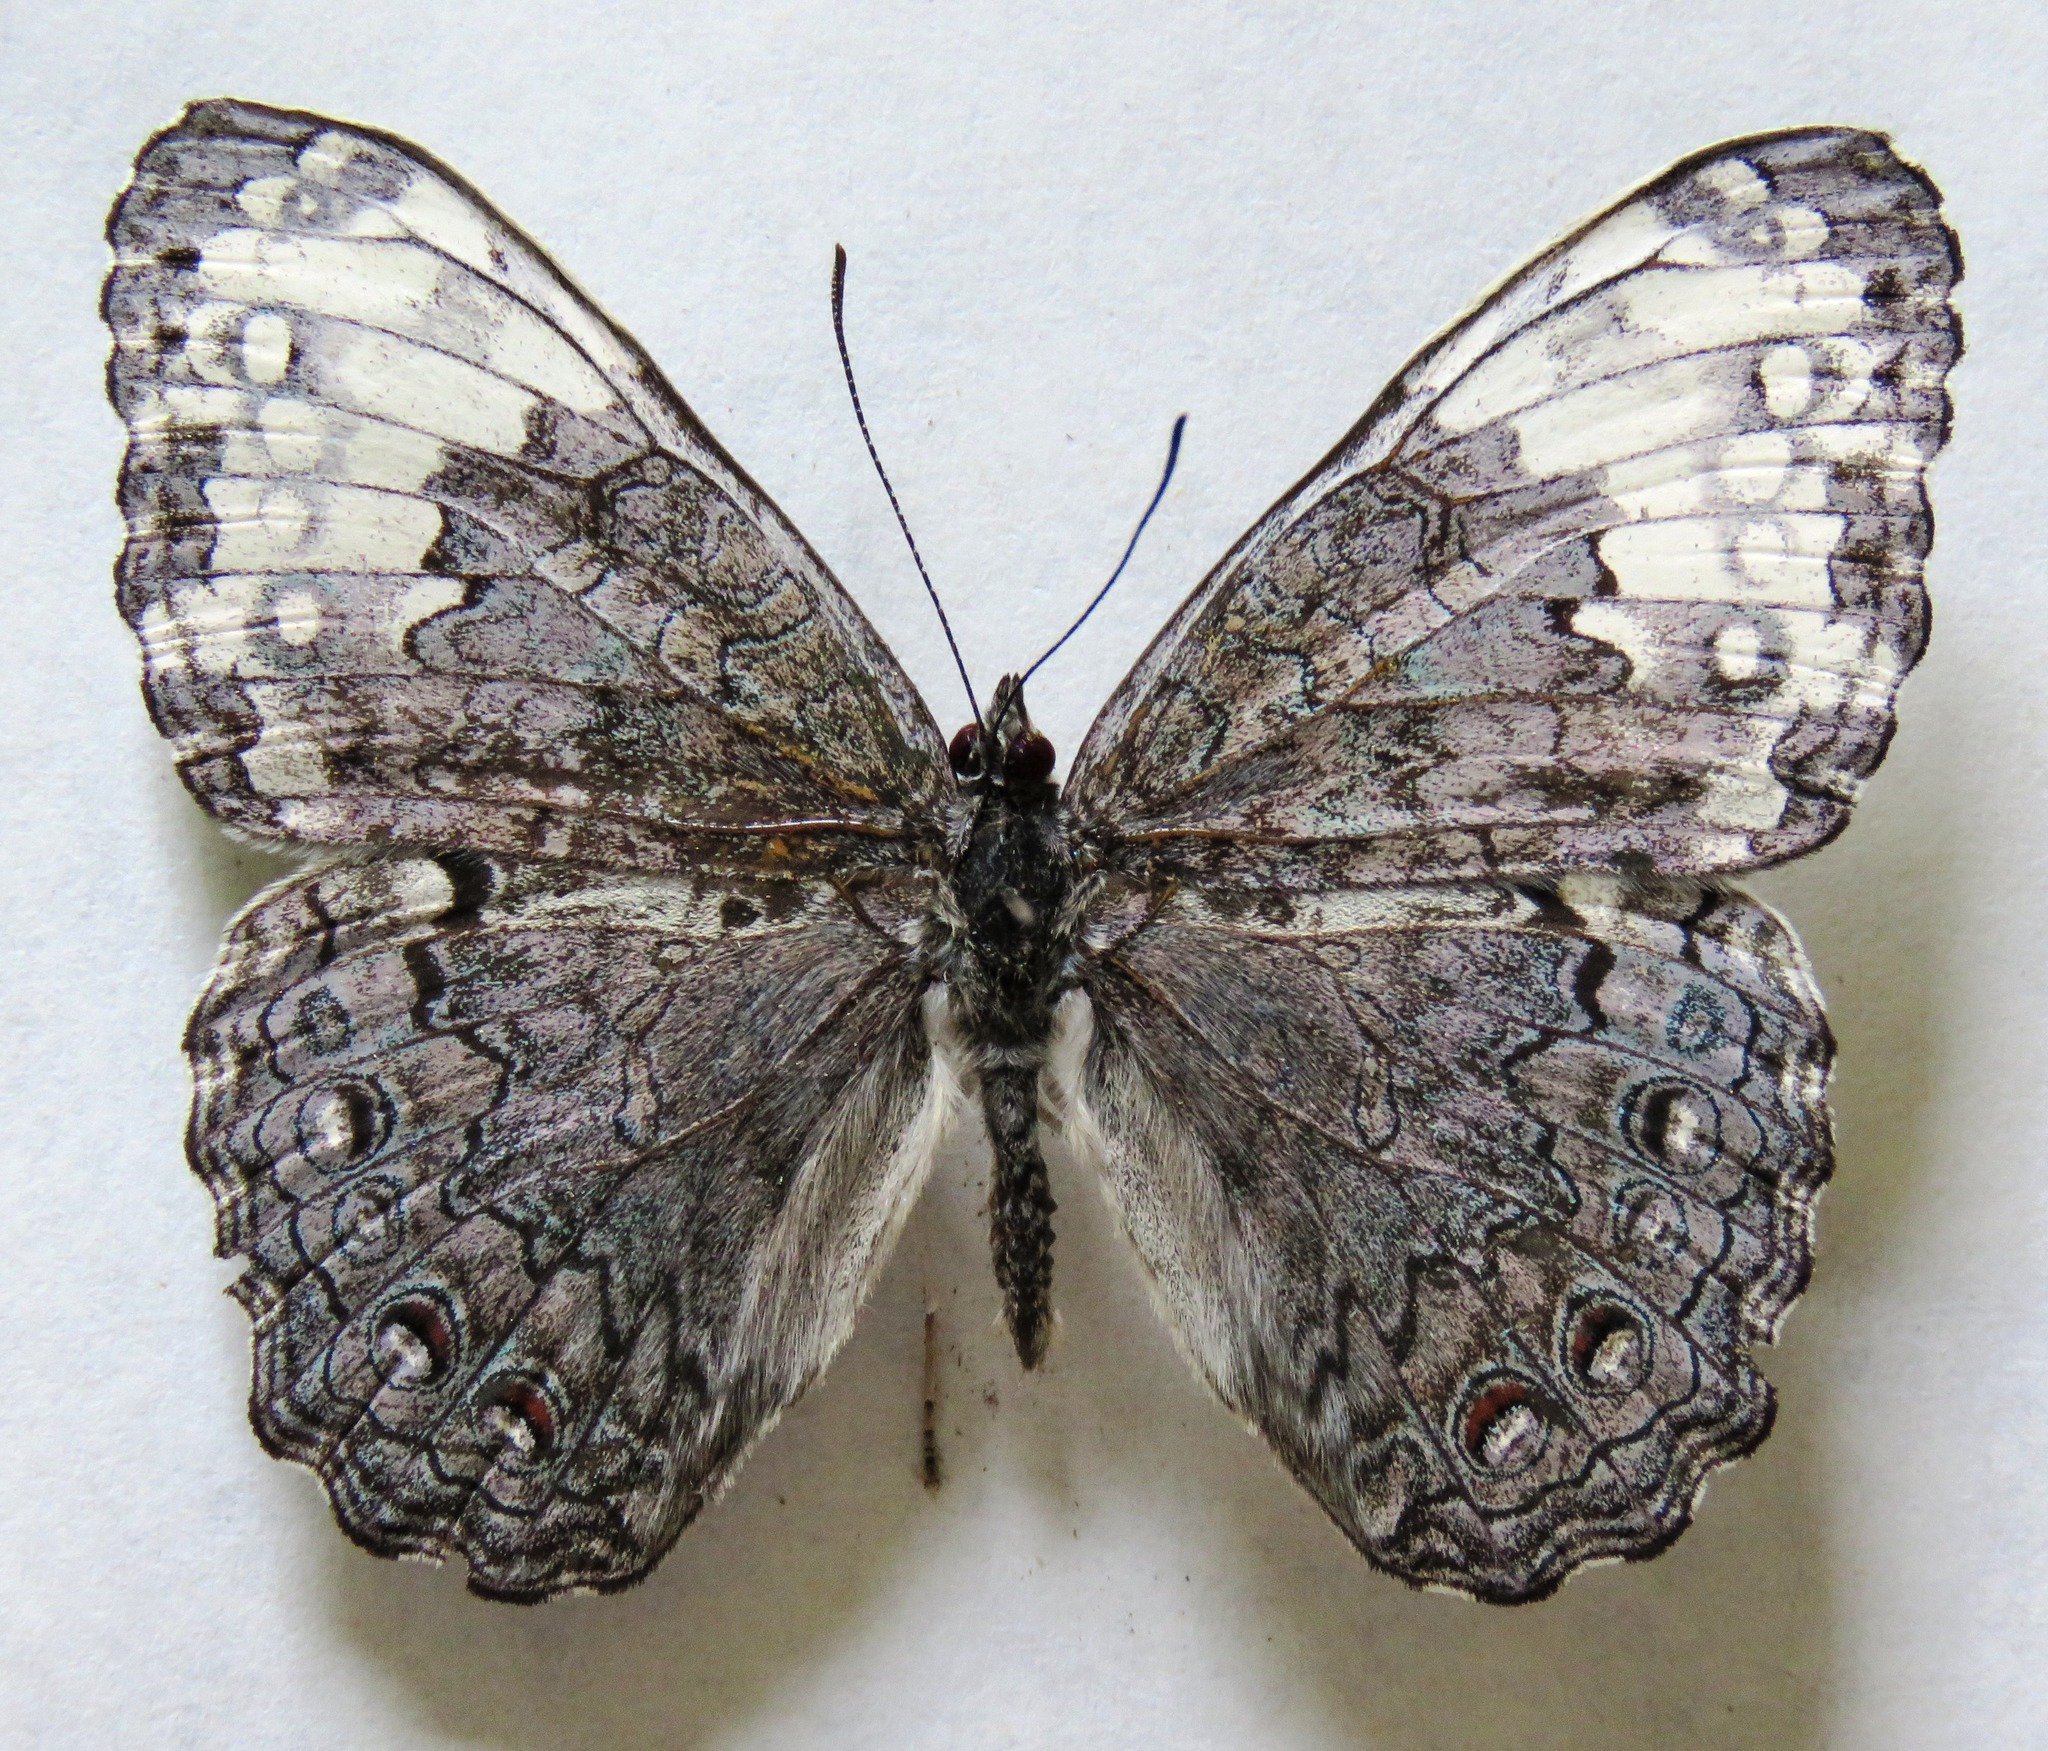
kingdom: Animalia
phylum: Arthropoda
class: Insecta
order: Lepidoptera
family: Nymphalidae
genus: Hamadryas
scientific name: Hamadryas glauconome
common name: Glaucous cracker
